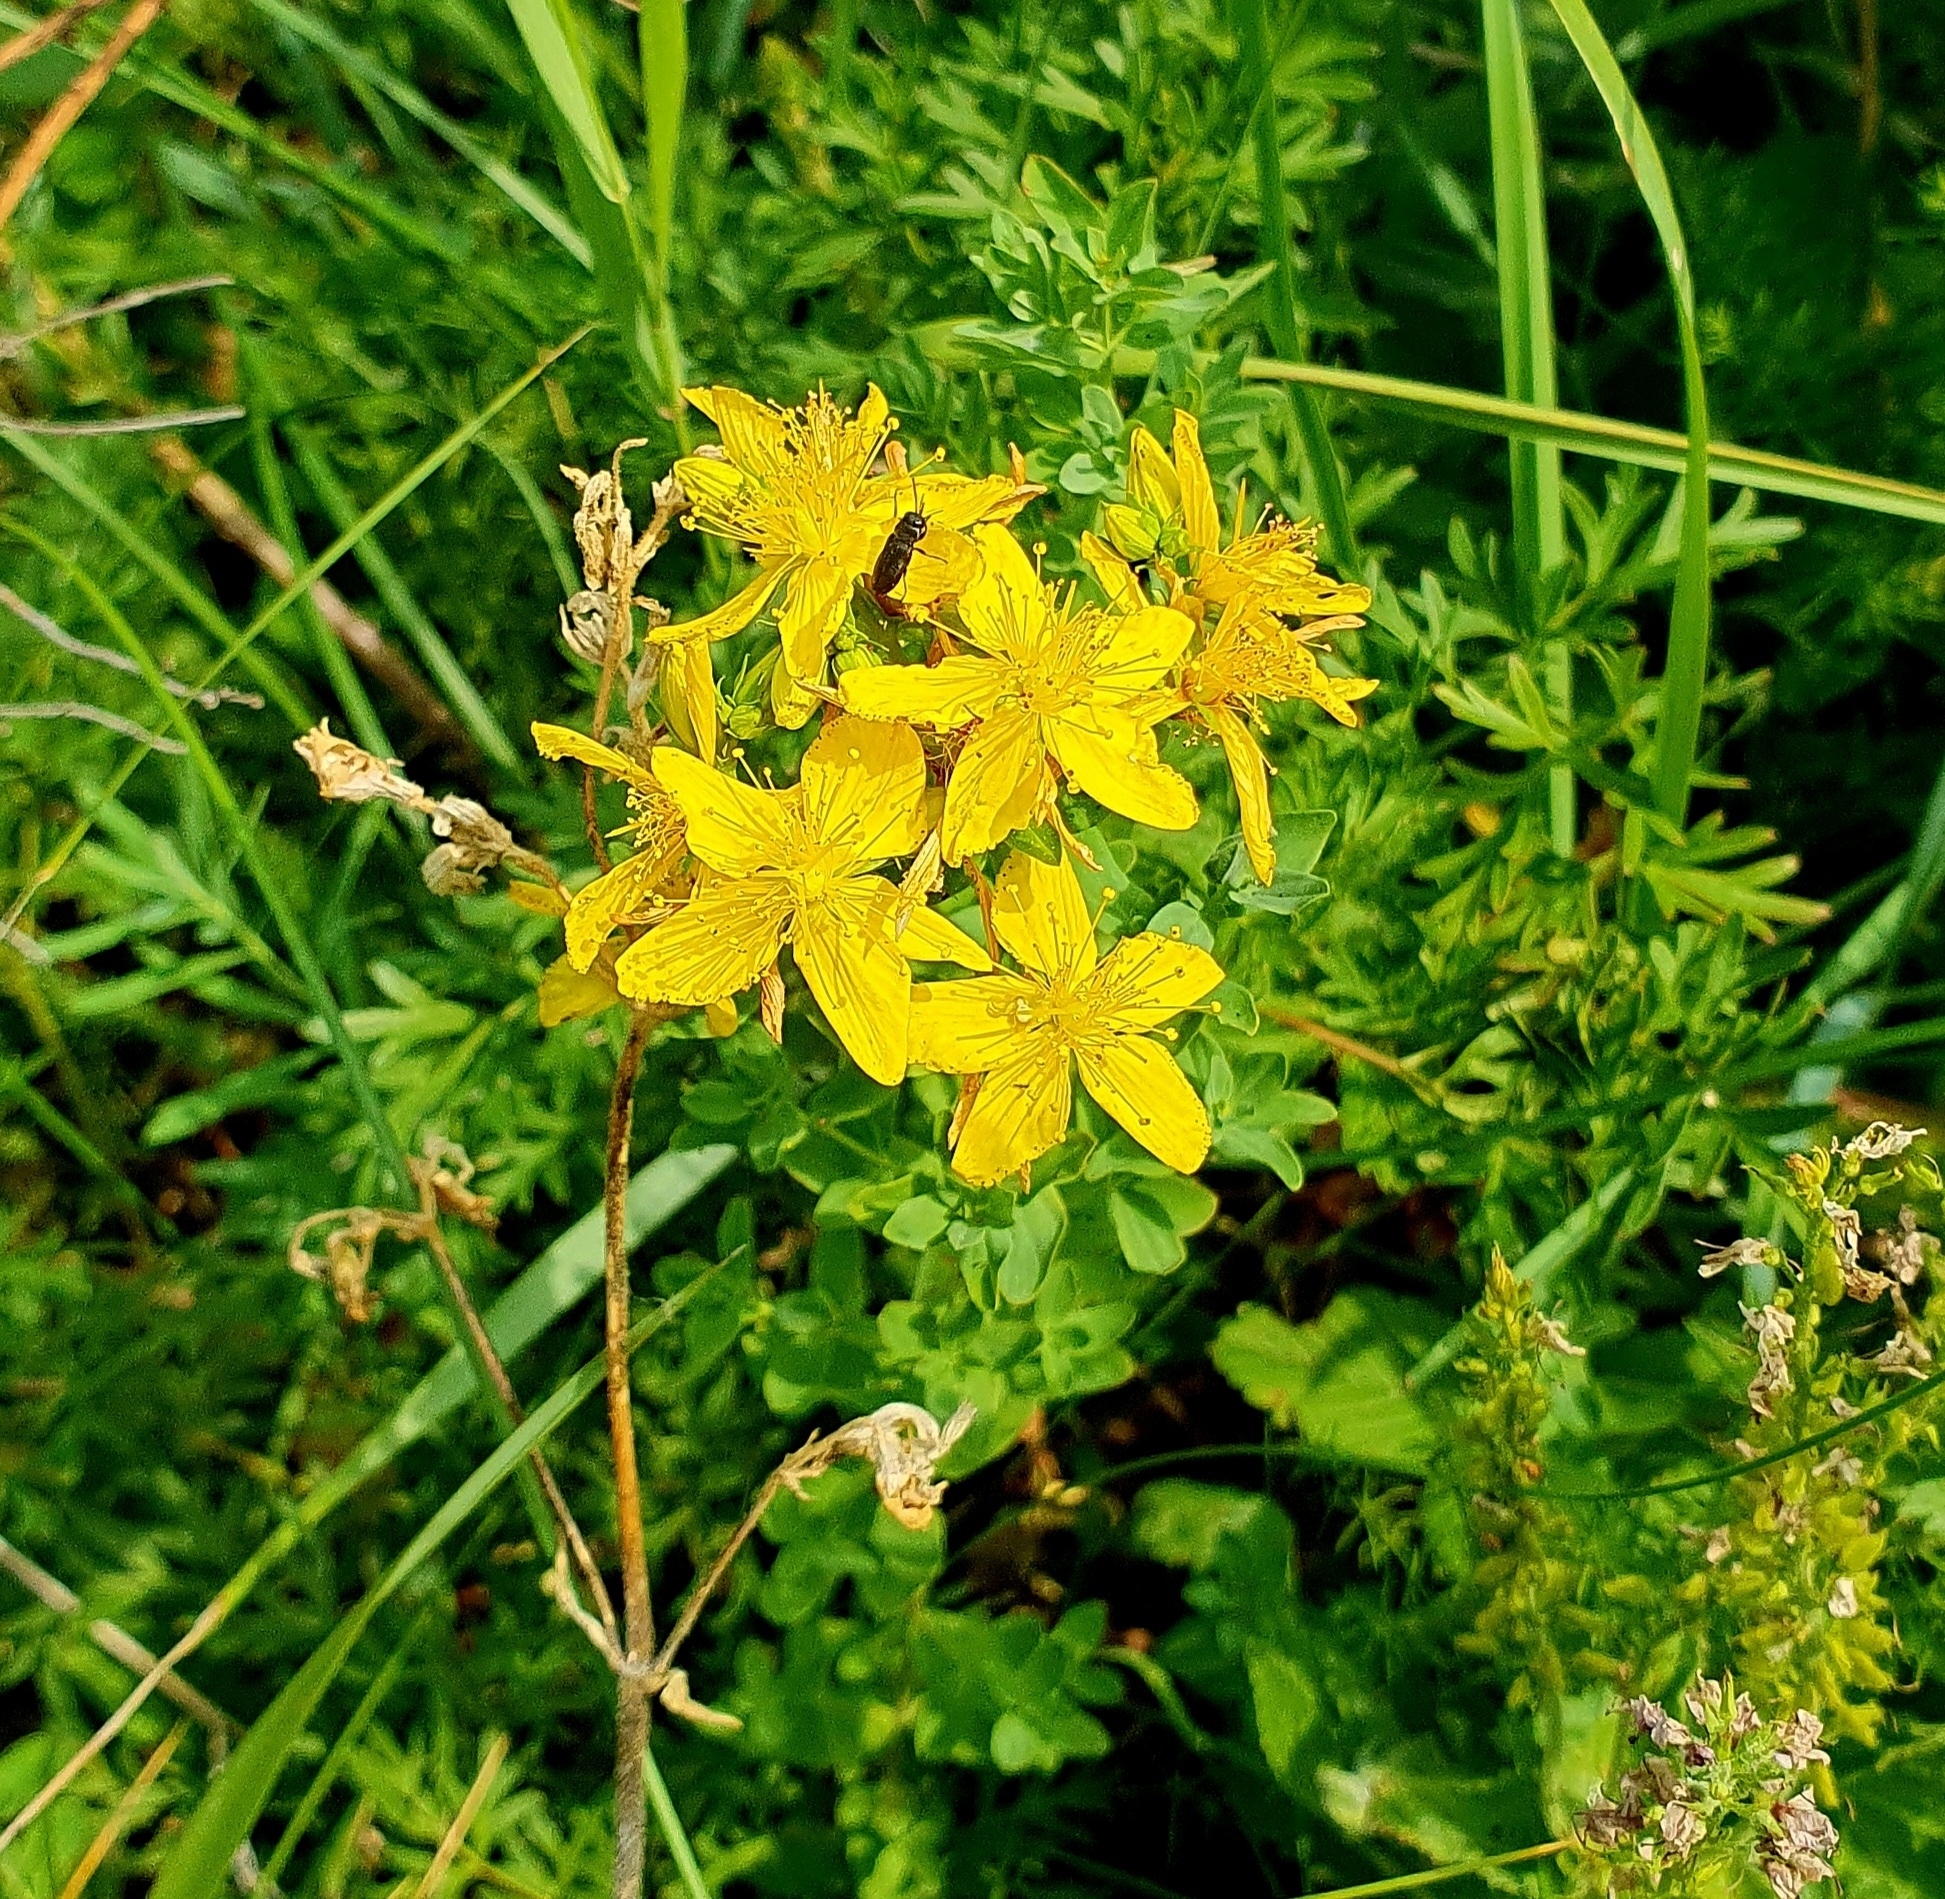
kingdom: Plantae
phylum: Tracheophyta
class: Magnoliopsida
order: Malpighiales
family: Hypericaceae
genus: Hypericum
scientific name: Hypericum perforatum
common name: Common st. johnswort
